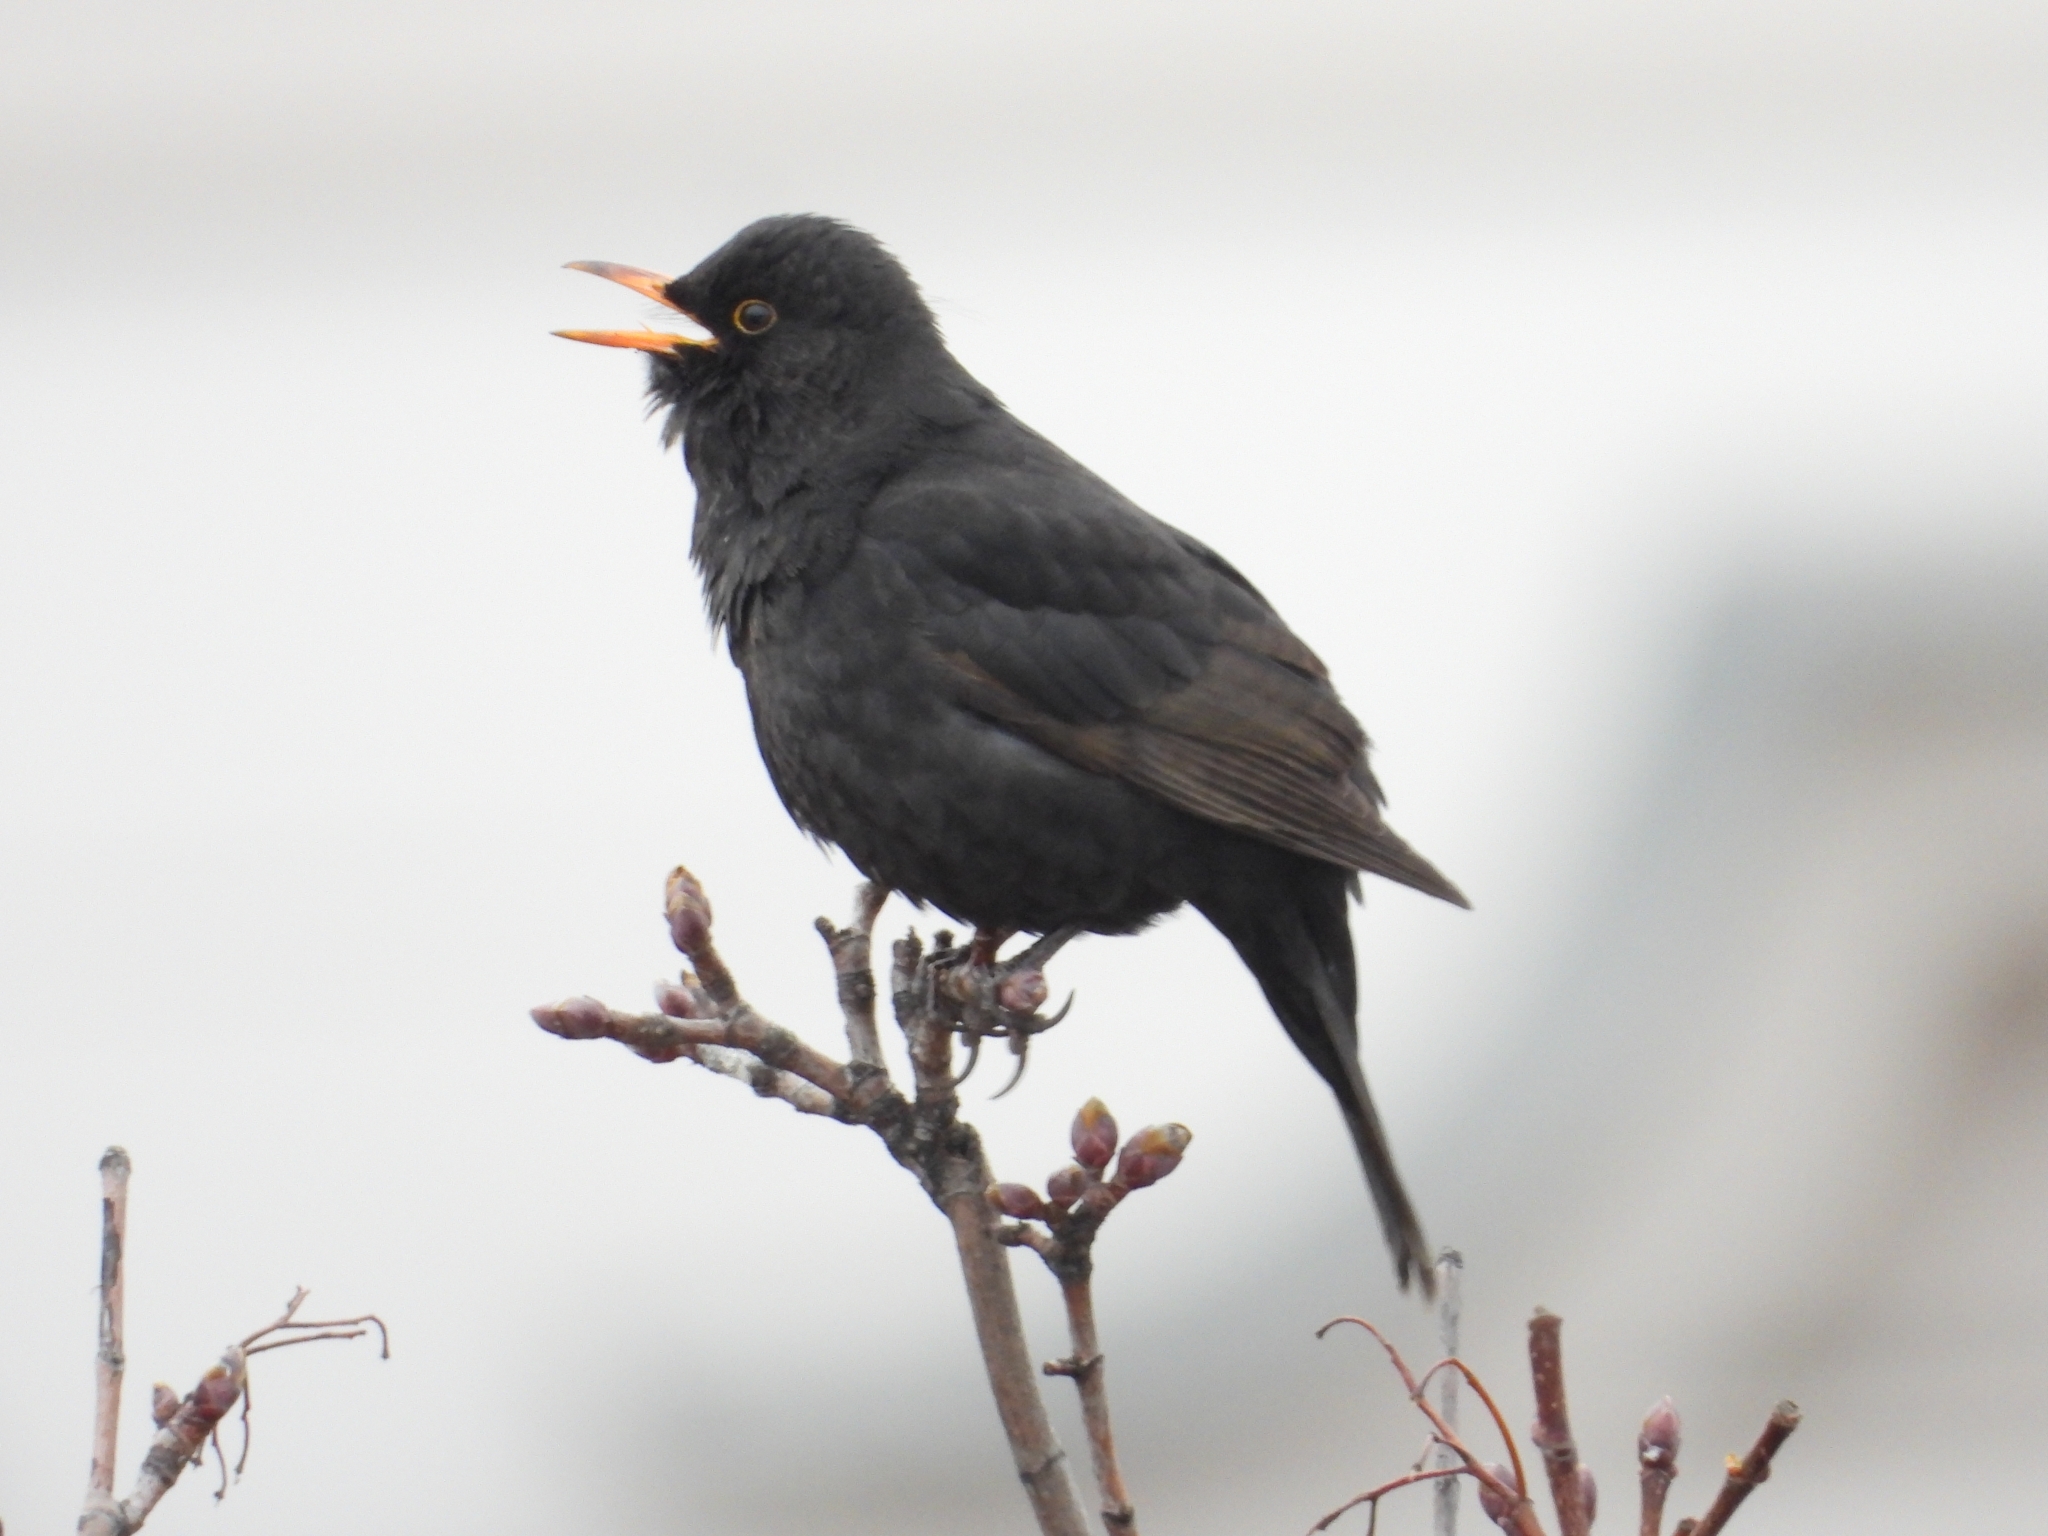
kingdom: Animalia
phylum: Chordata
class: Aves
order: Passeriformes
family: Turdidae
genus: Turdus
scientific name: Turdus merula
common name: Common blackbird
